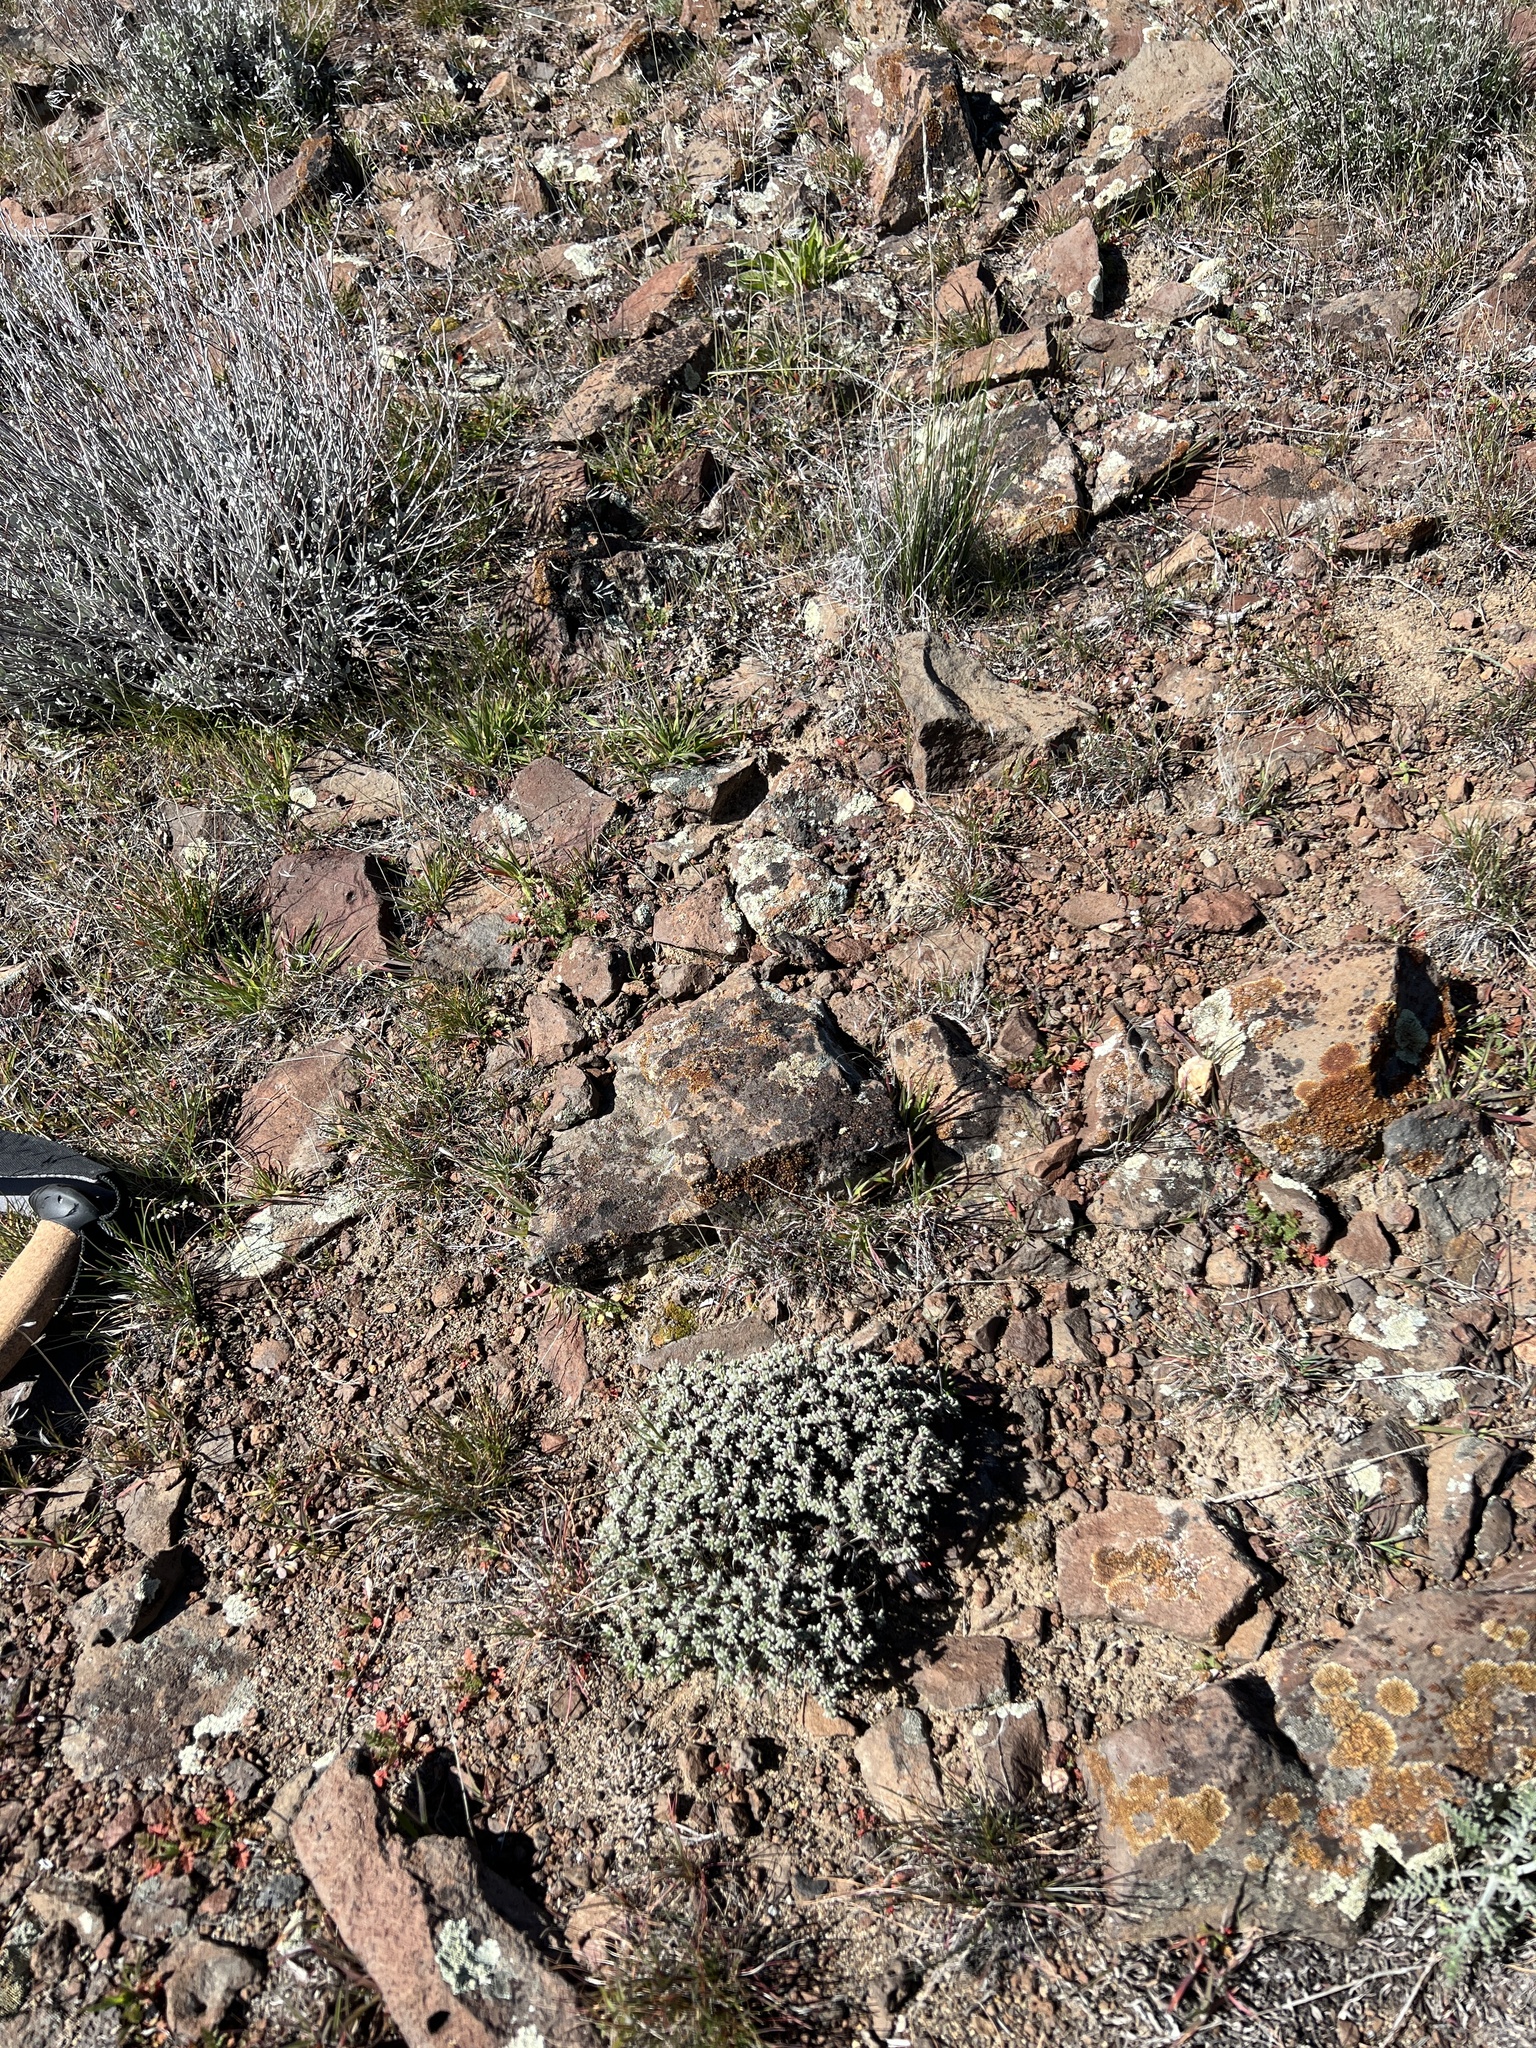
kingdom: Plantae
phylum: Tracheophyta
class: Magnoliopsida
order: Caryophyllales
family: Polygonaceae
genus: Eriogonum
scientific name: Eriogonum thymoides
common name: Thyme-leaf wild buckwheat
